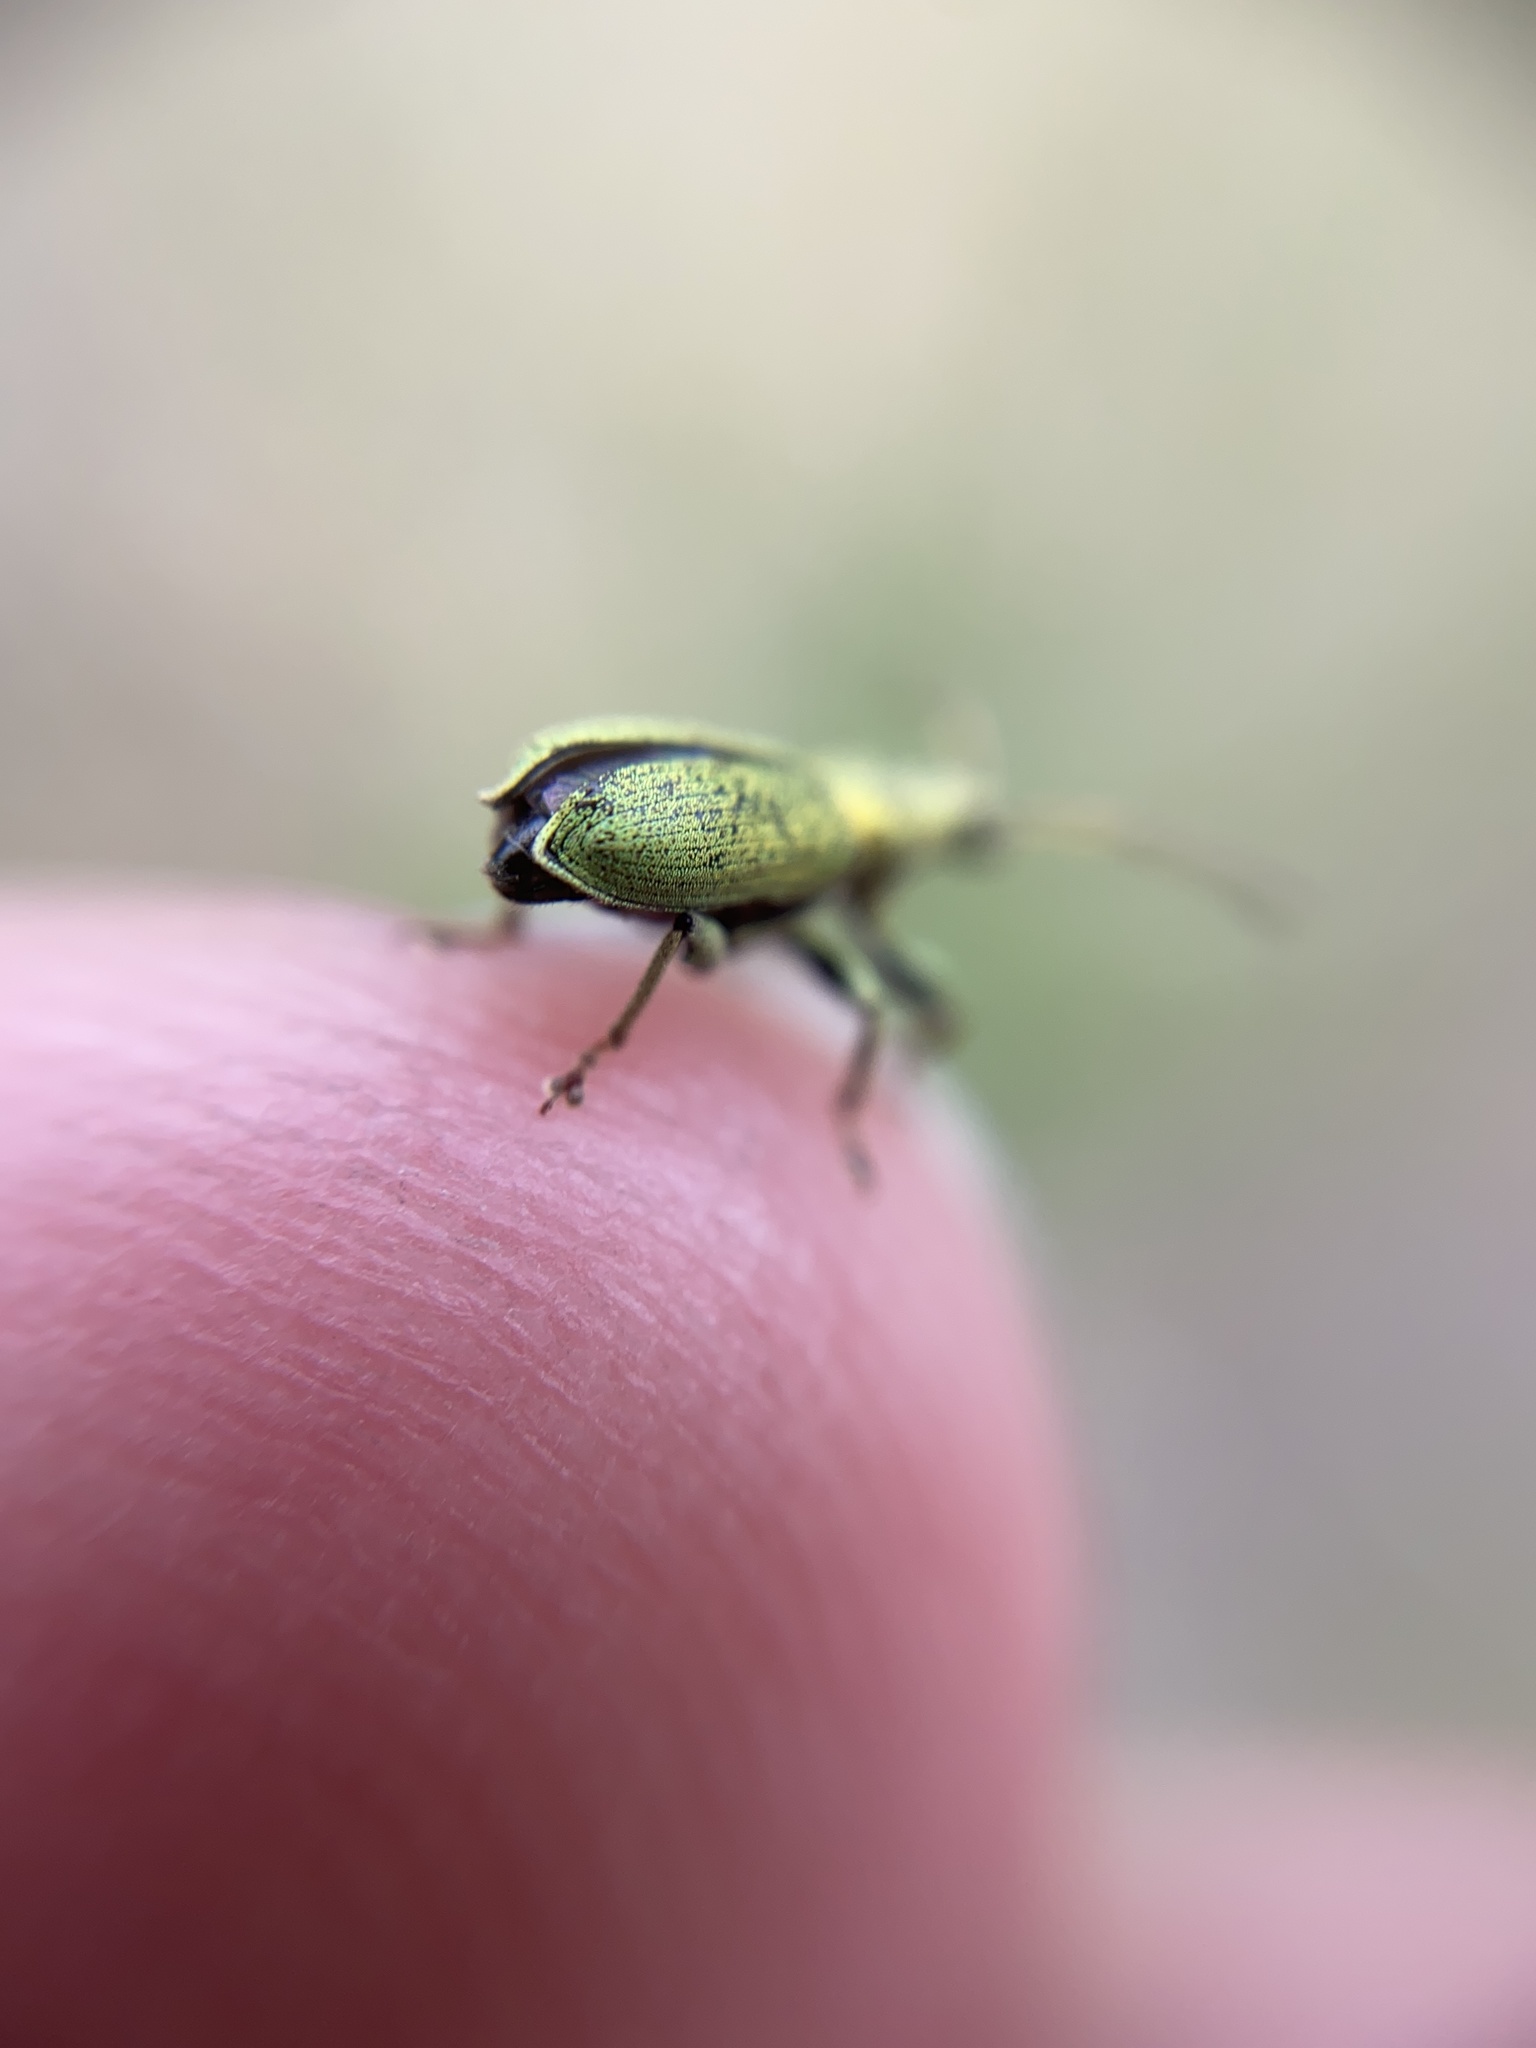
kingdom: Animalia
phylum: Arthropoda
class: Insecta
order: Coleoptera
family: Curculionidae
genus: Phyllobius
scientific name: Phyllobius maculicornis
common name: Green leaf weevil
